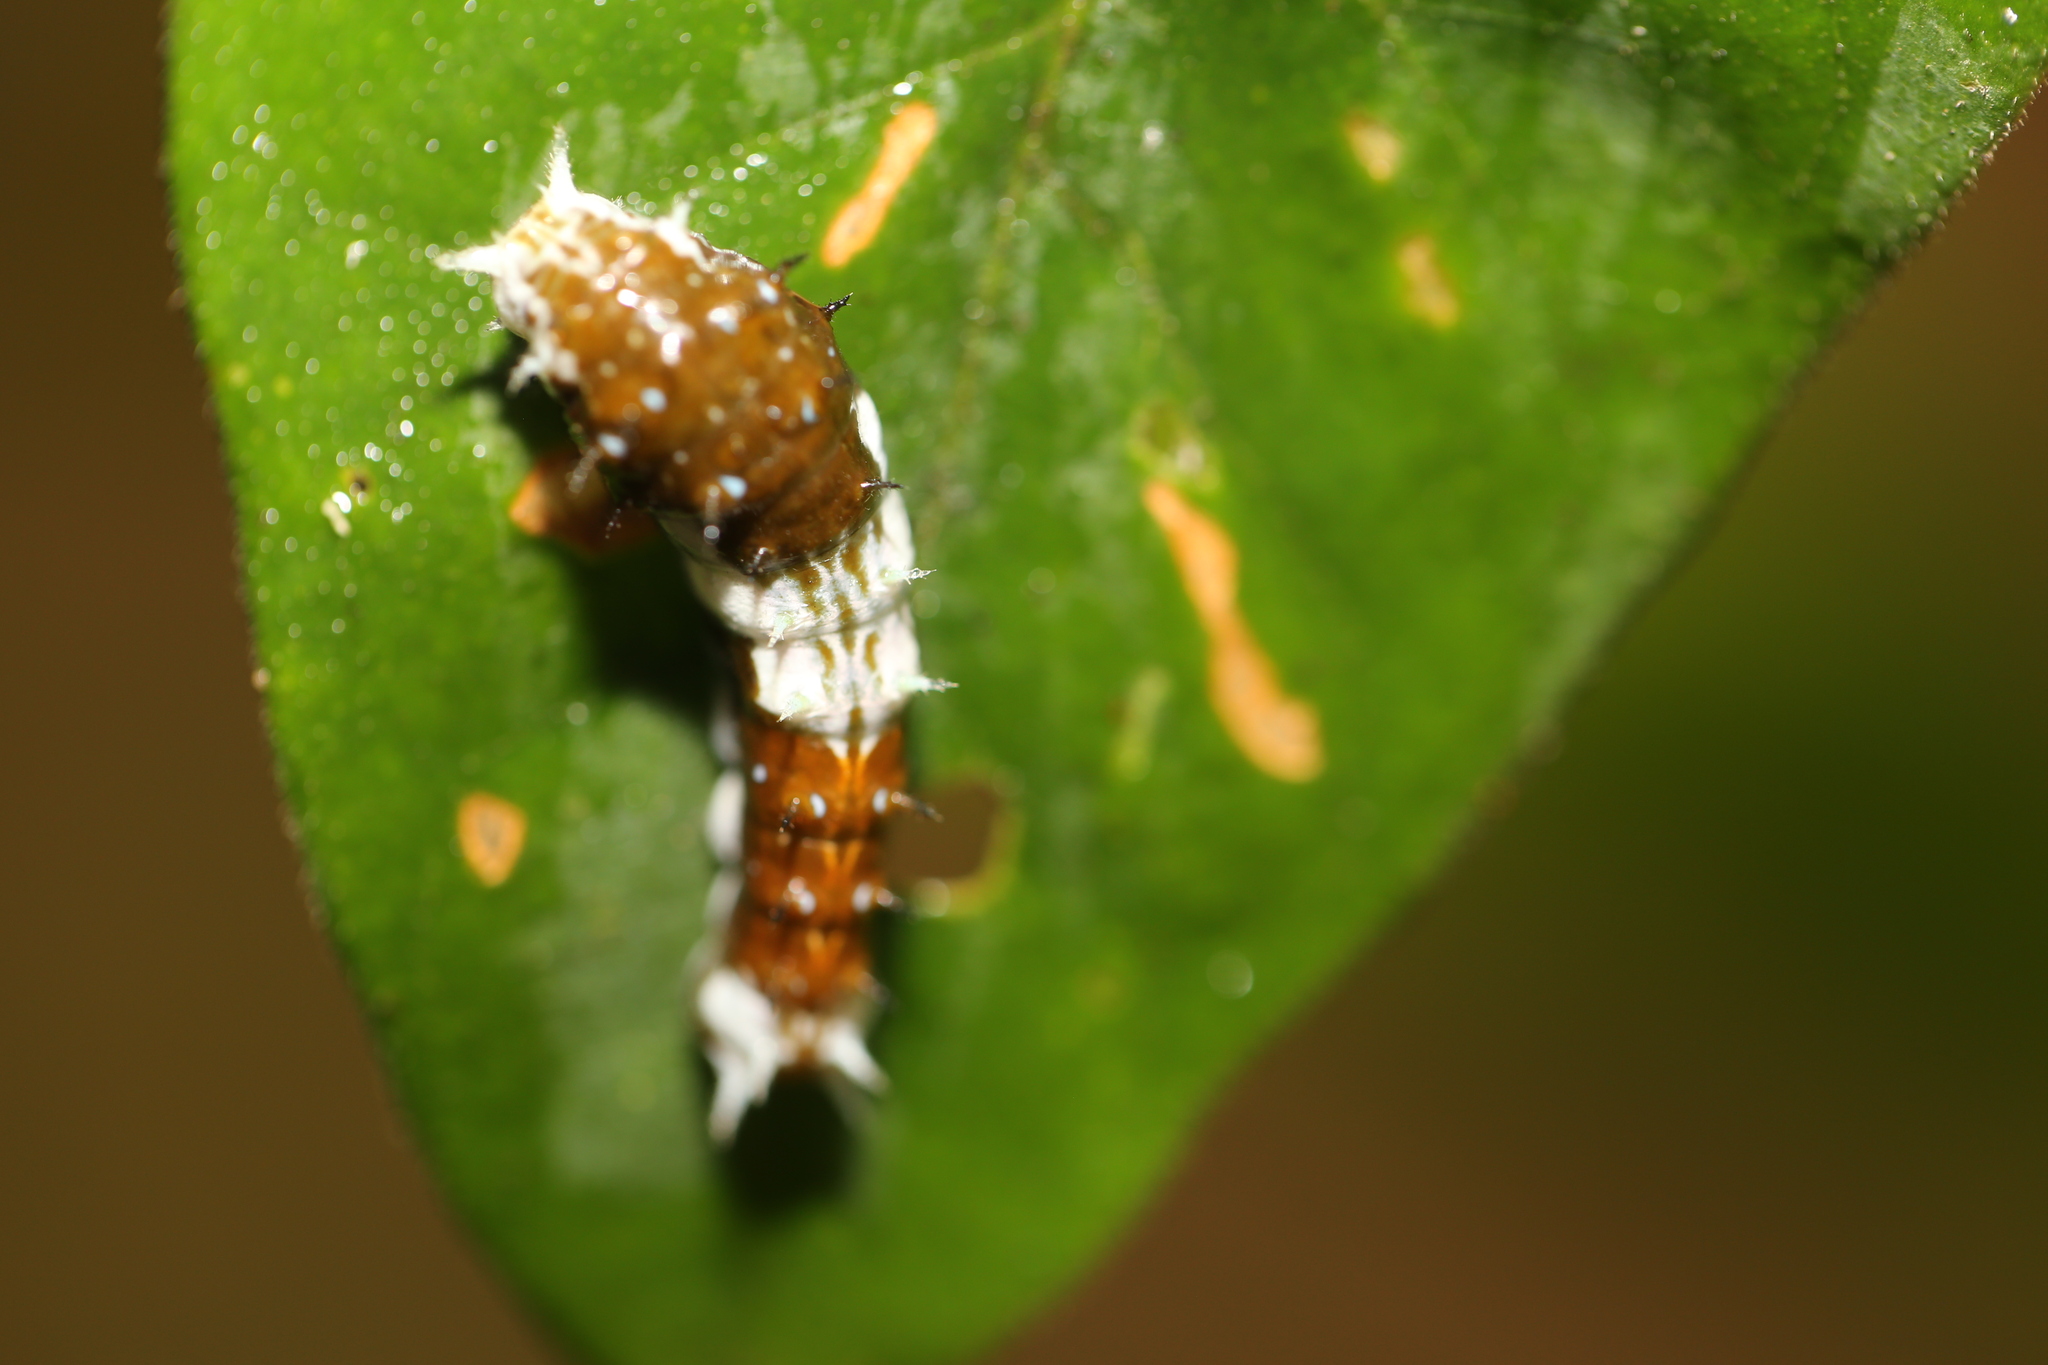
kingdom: Animalia
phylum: Arthropoda
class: Insecta
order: Lepidoptera
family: Papilionidae
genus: Papilio
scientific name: Papilio aegeus
